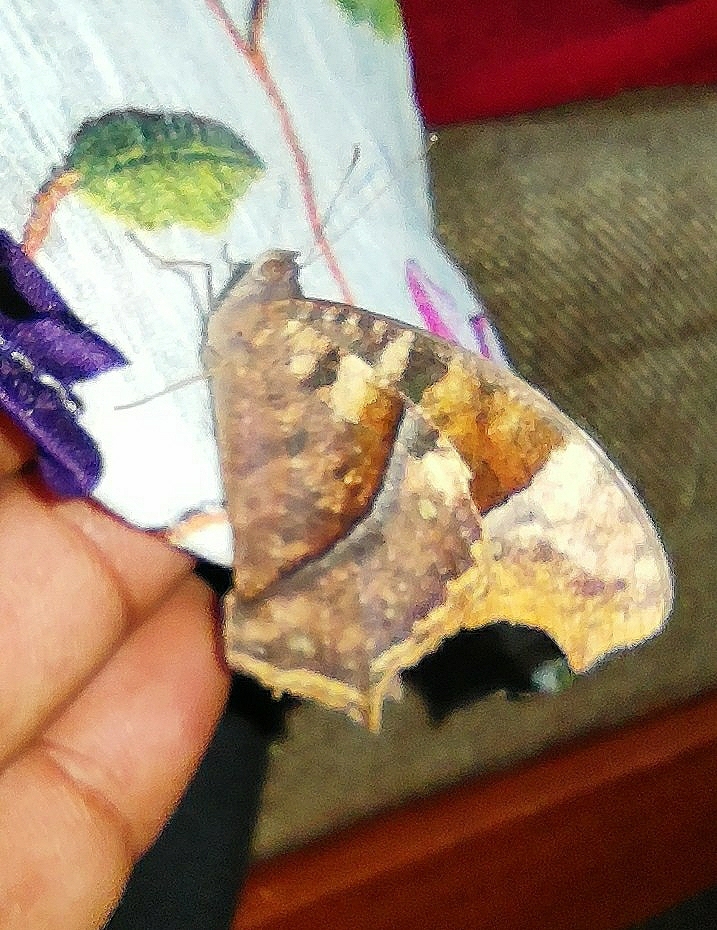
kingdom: Animalia
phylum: Arthropoda
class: Insecta
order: Lepidoptera
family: Nymphalidae
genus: Melanitis
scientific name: Melanitis phedima
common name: Dark evening brown
